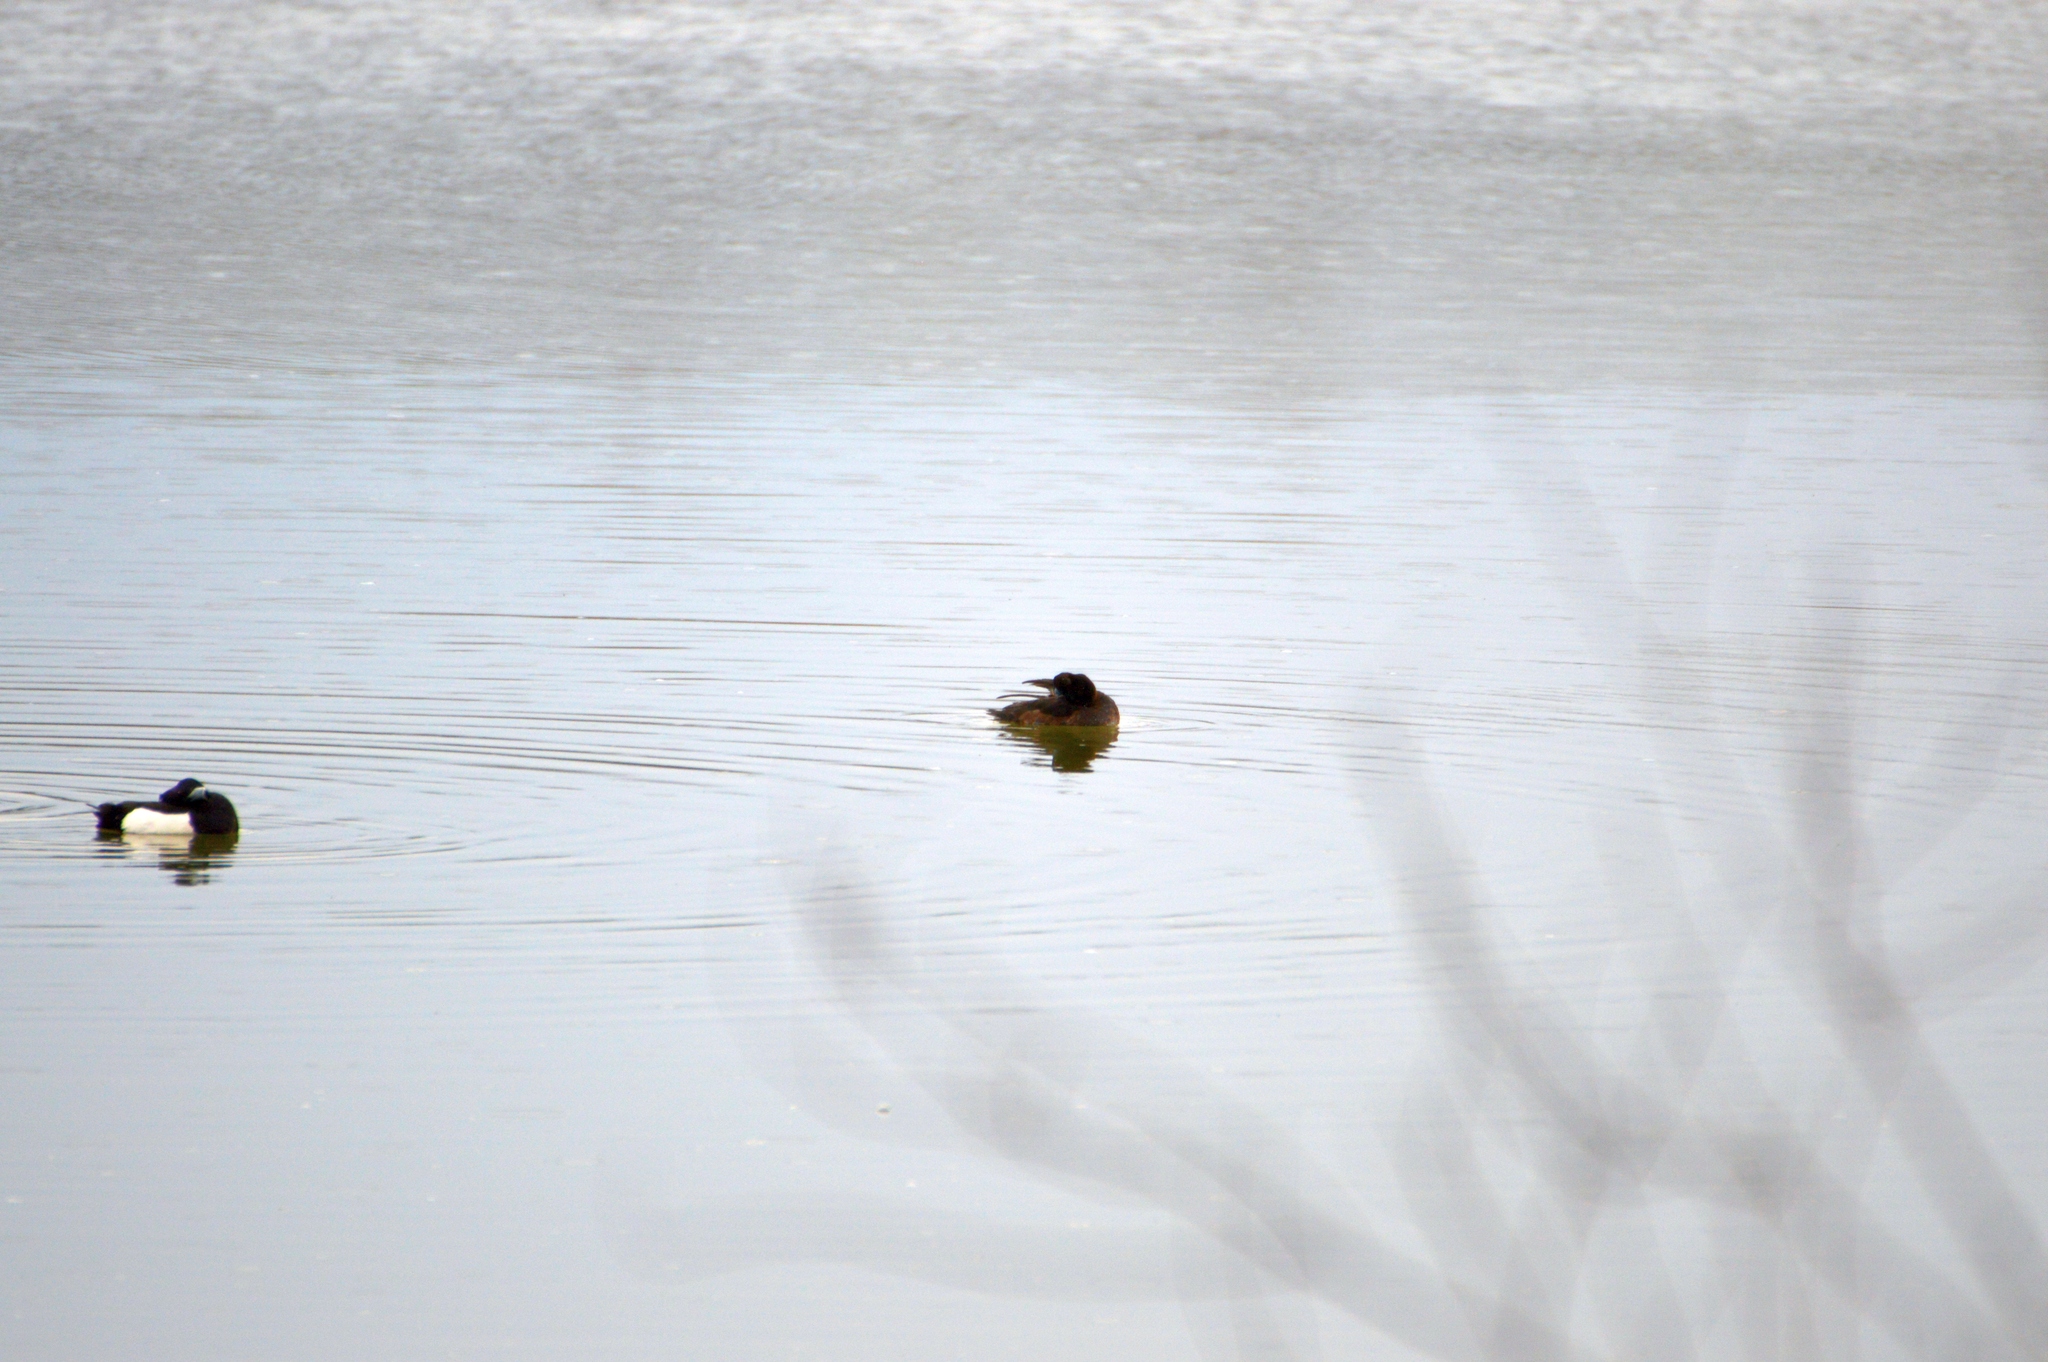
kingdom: Animalia
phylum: Chordata
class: Aves
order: Anseriformes
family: Anatidae
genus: Aythya
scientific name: Aythya fuligula
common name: Tufted duck
